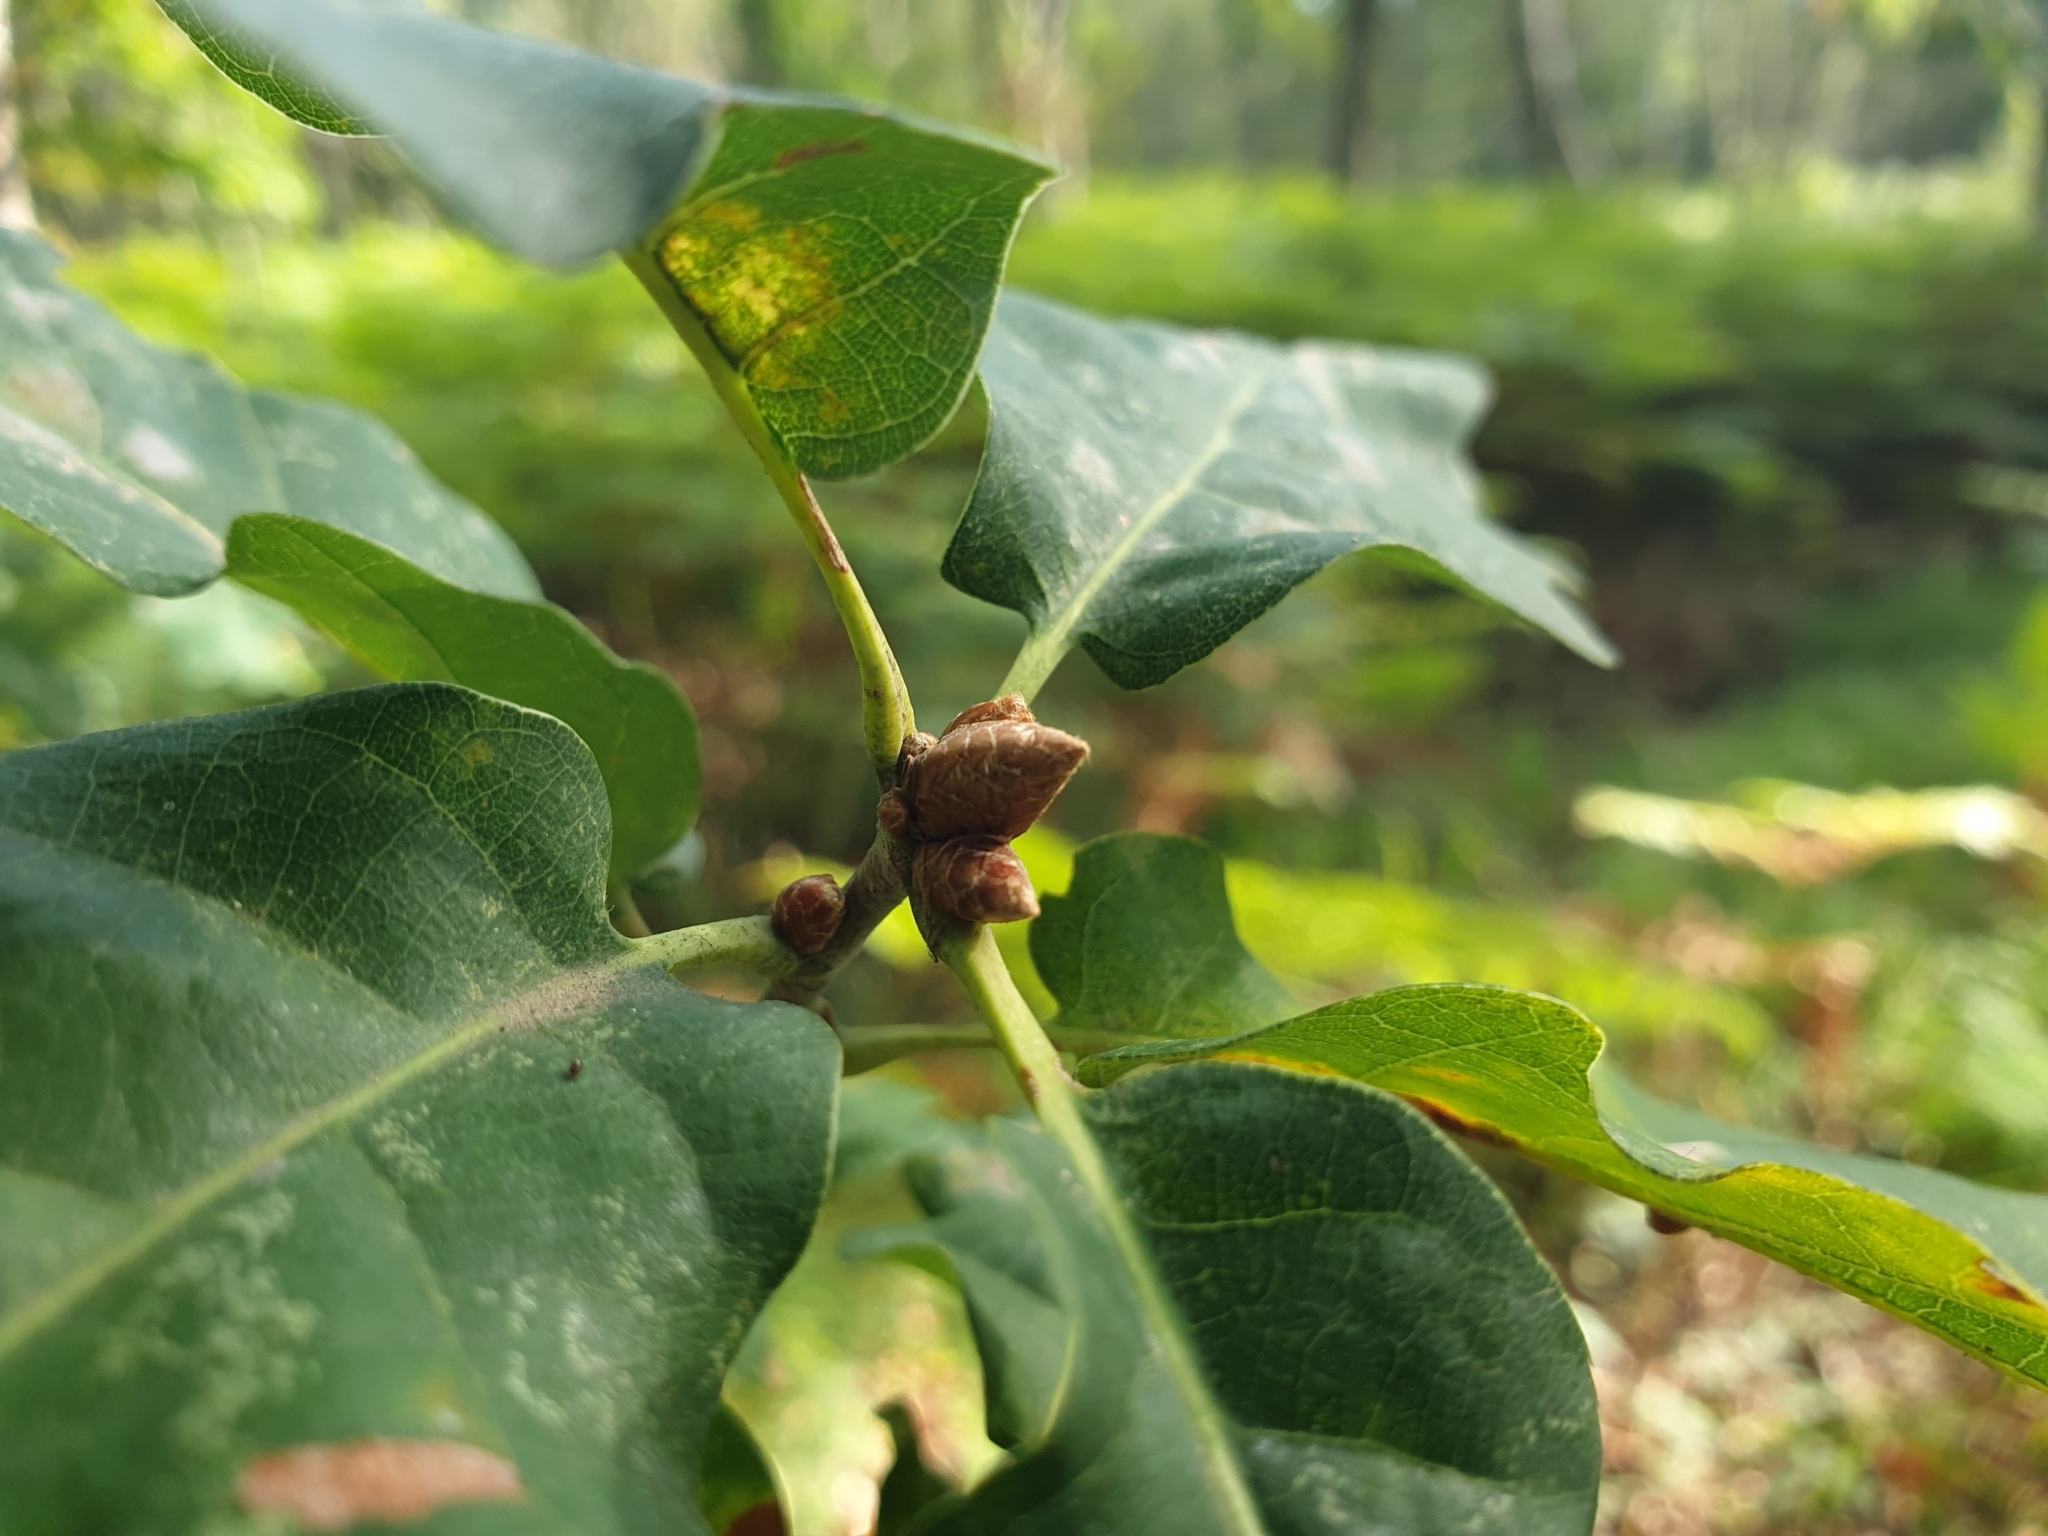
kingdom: Plantae
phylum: Tracheophyta
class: Magnoliopsida
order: Fagales
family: Fagaceae
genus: Quercus
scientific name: Quercus petraea
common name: Sessile oak
